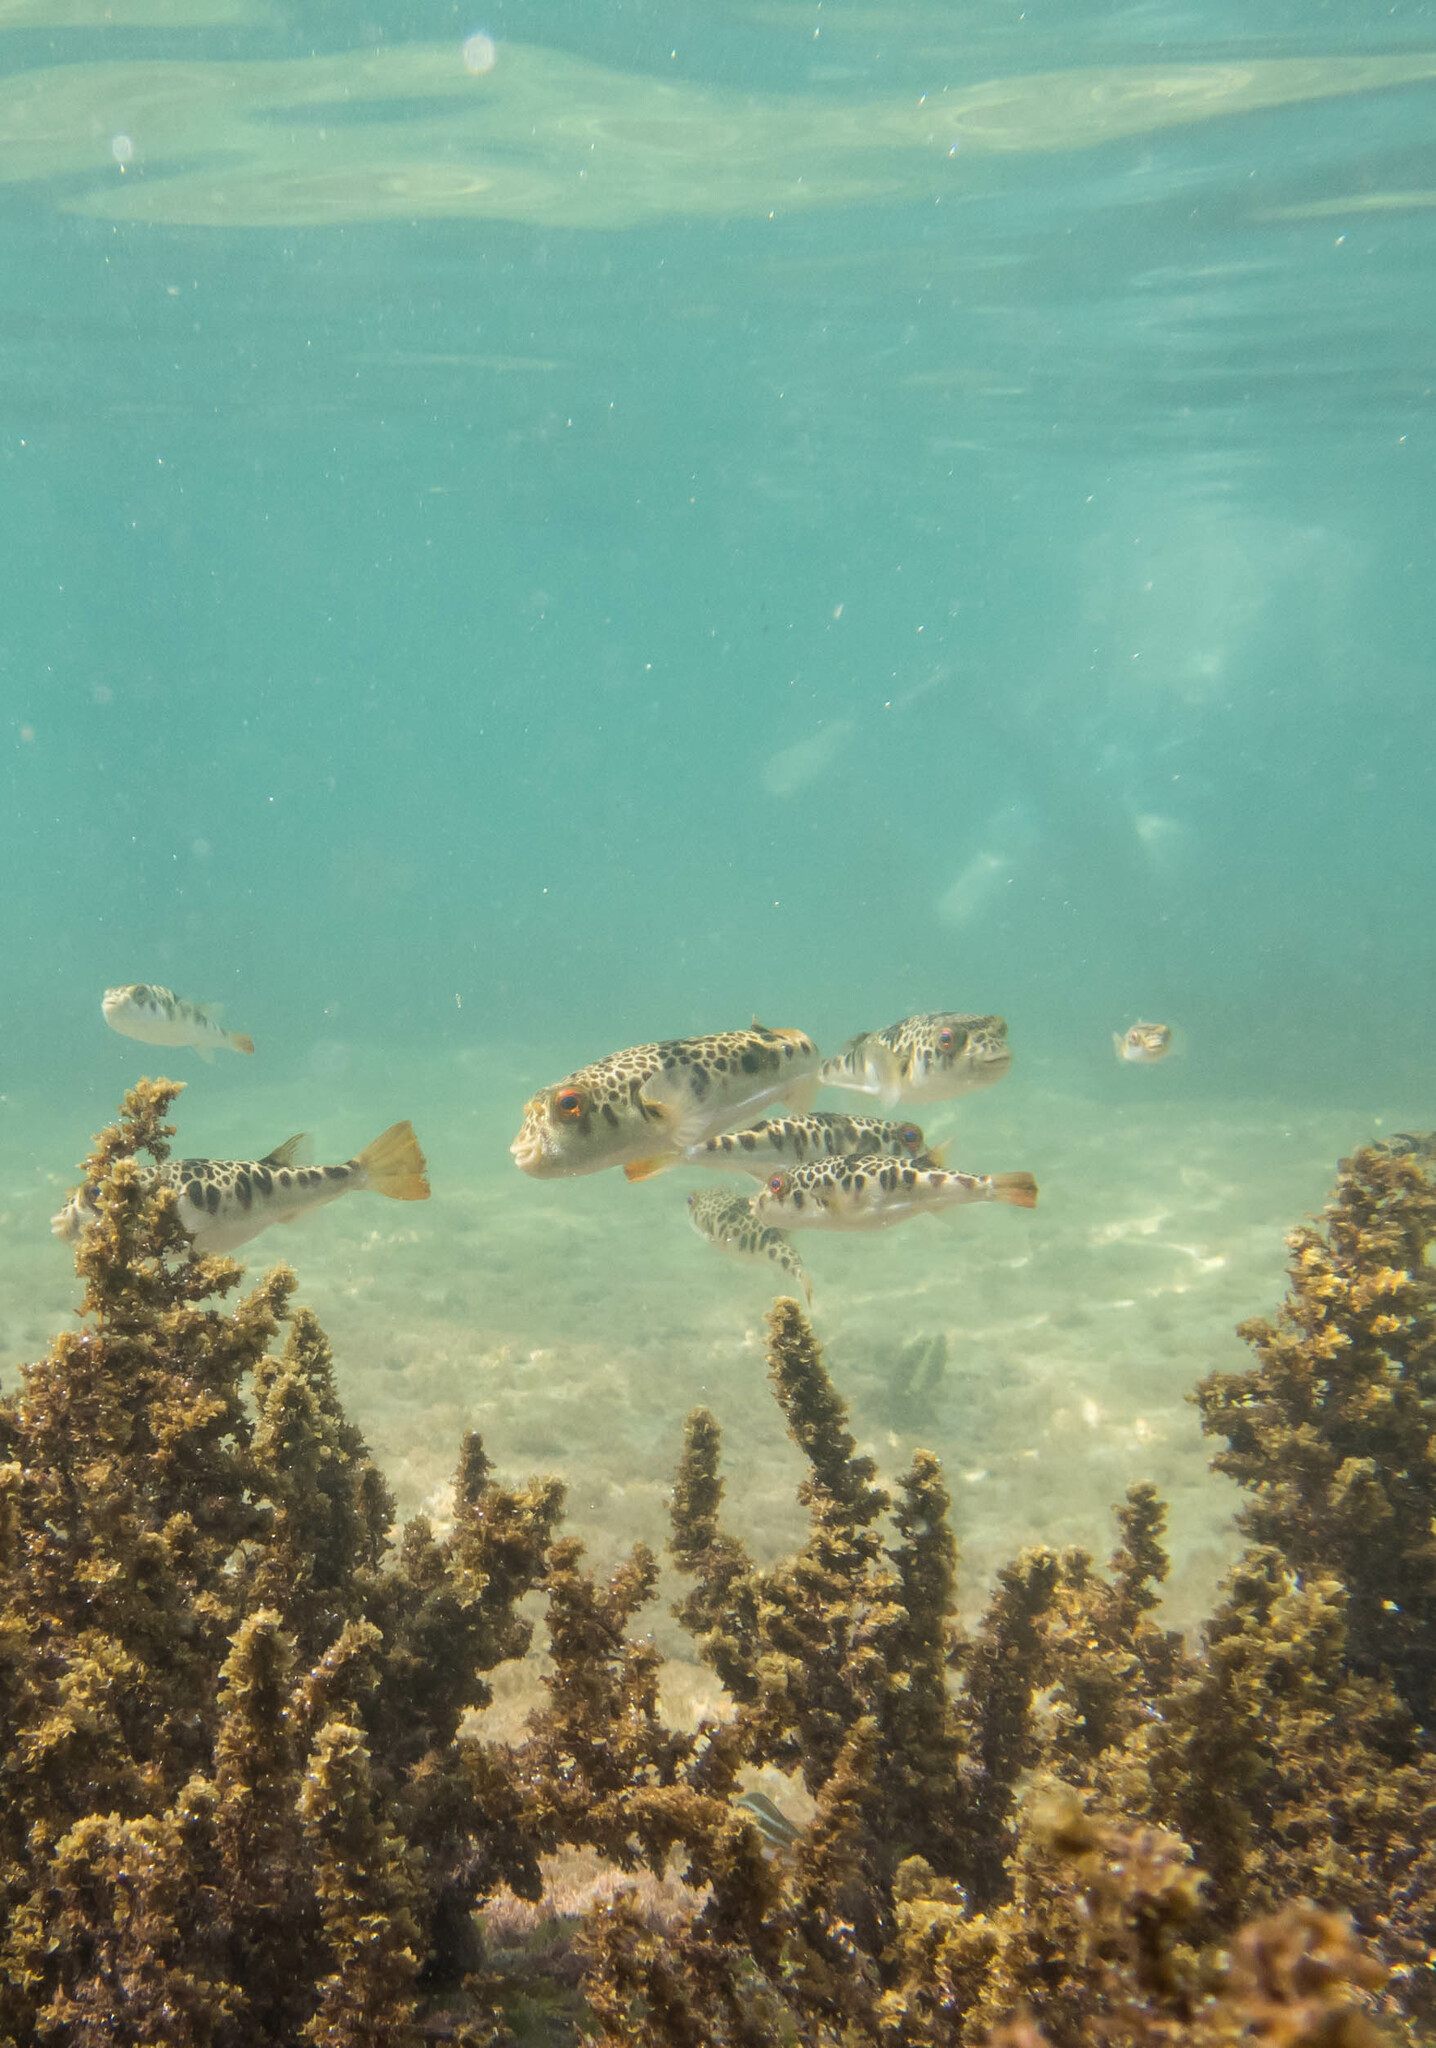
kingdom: Animalia
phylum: Chordata
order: Tetraodontiformes
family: Tetraodontidae
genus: Tetractenos
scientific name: Tetractenos glaber
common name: Smooth toadfish
